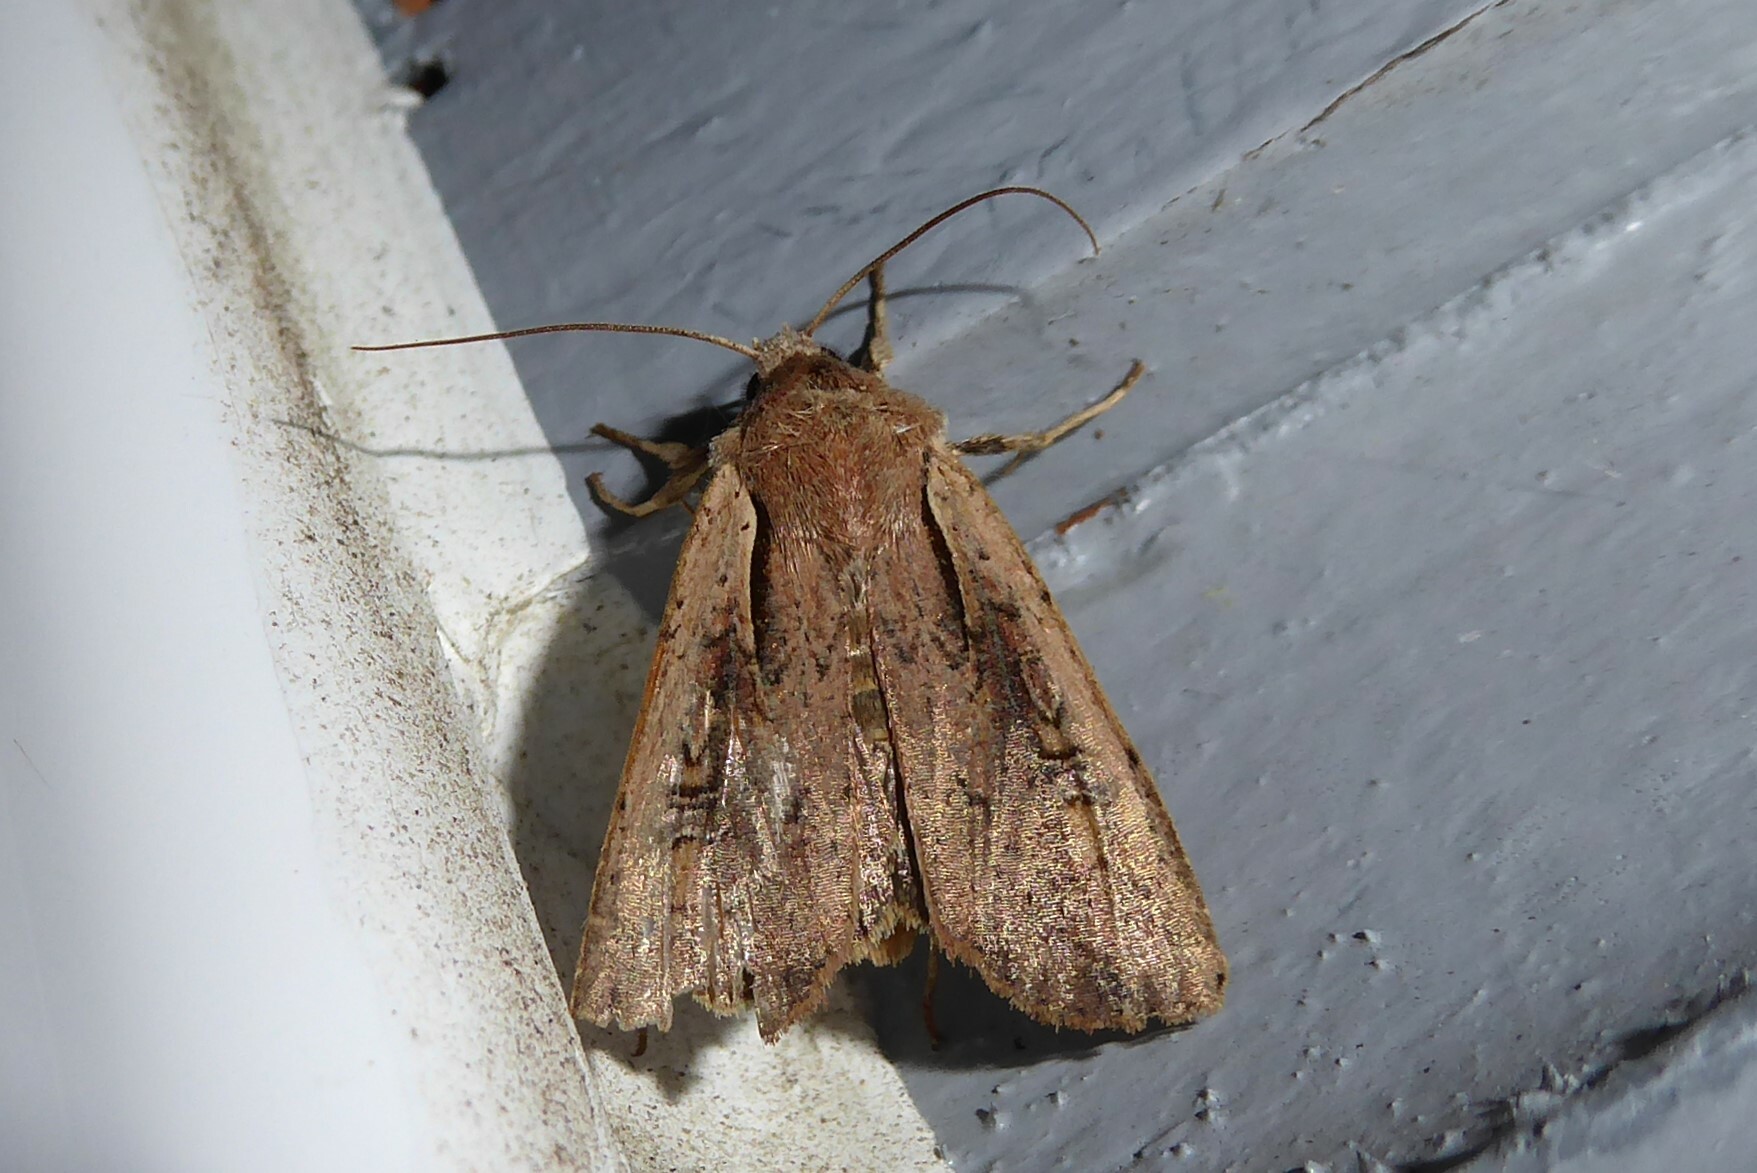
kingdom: Animalia
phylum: Arthropoda
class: Insecta
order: Lepidoptera
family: Noctuidae
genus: Ichneutica
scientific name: Ichneutica atristriga
